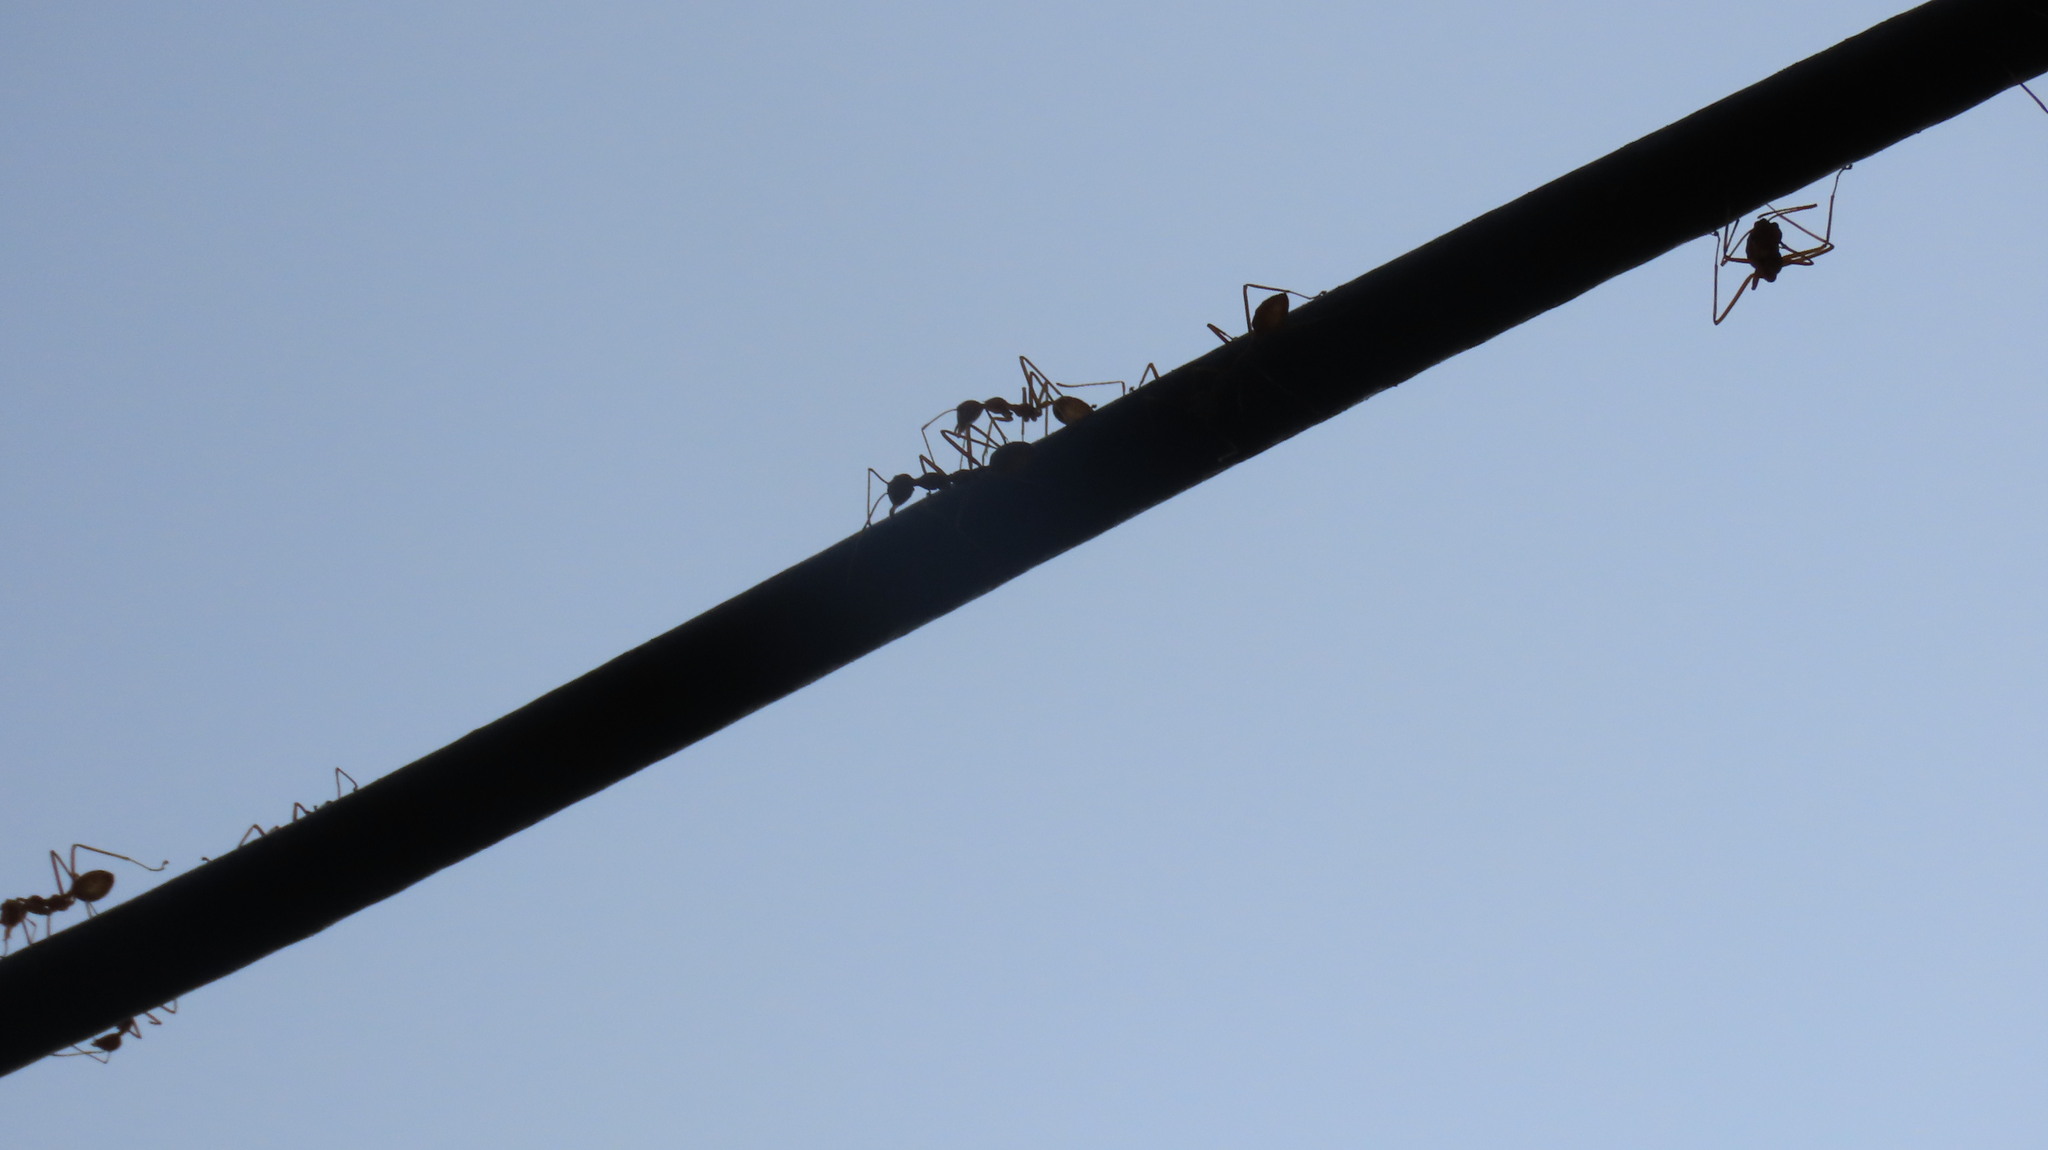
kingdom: Animalia
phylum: Arthropoda
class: Insecta
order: Hymenoptera
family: Formicidae
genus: Oecophylla
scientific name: Oecophylla smaragdina
